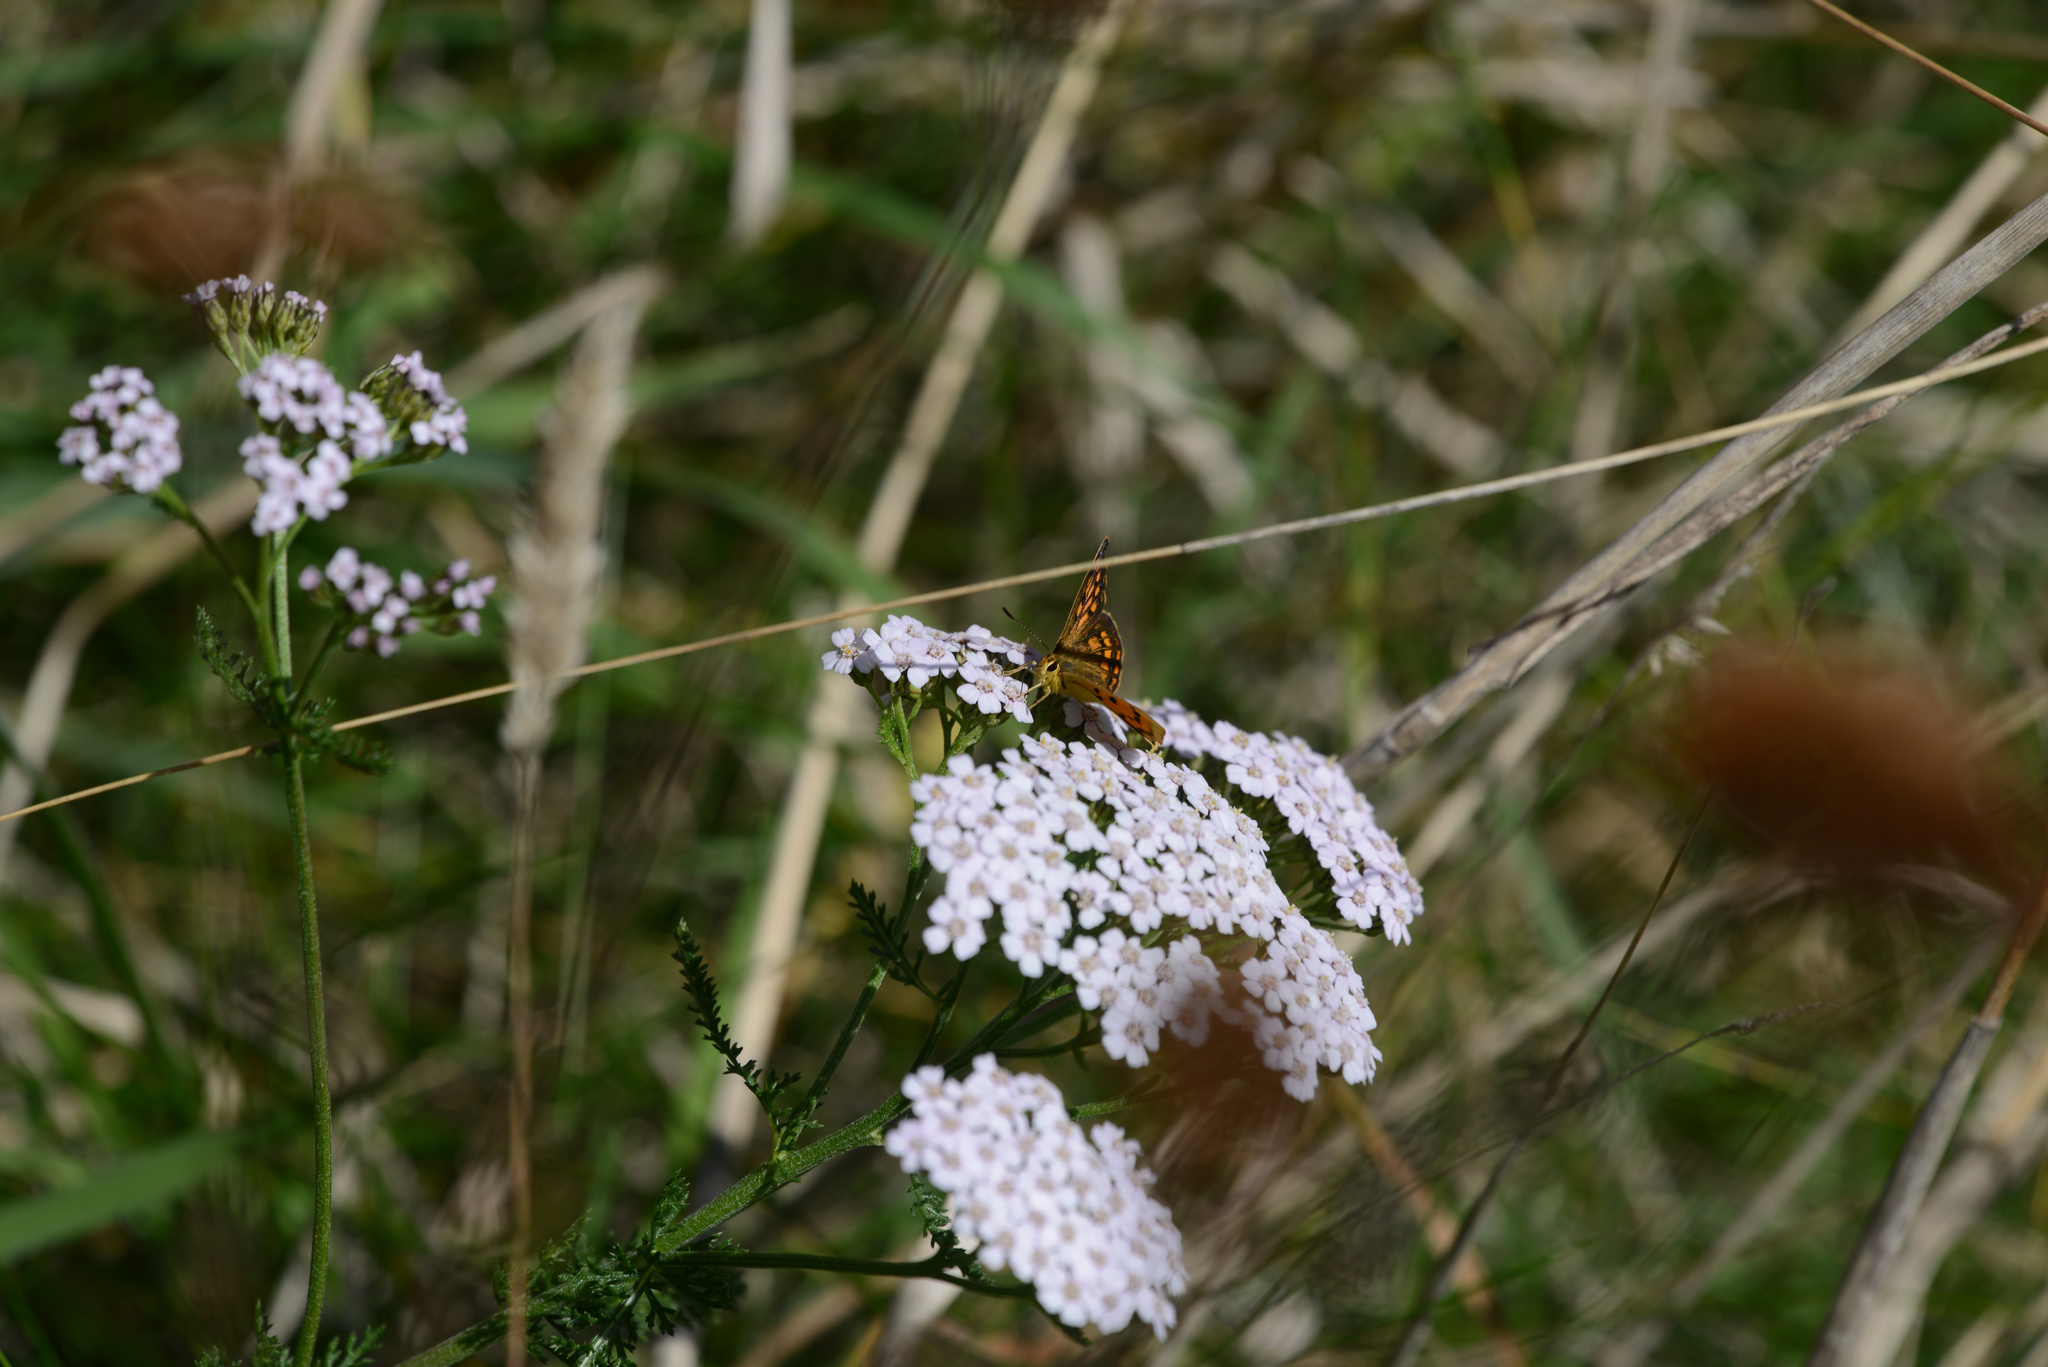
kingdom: Plantae
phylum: Tracheophyta
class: Magnoliopsida
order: Asterales
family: Asteraceae
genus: Achillea
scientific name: Achillea millefolium
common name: Yarrow
